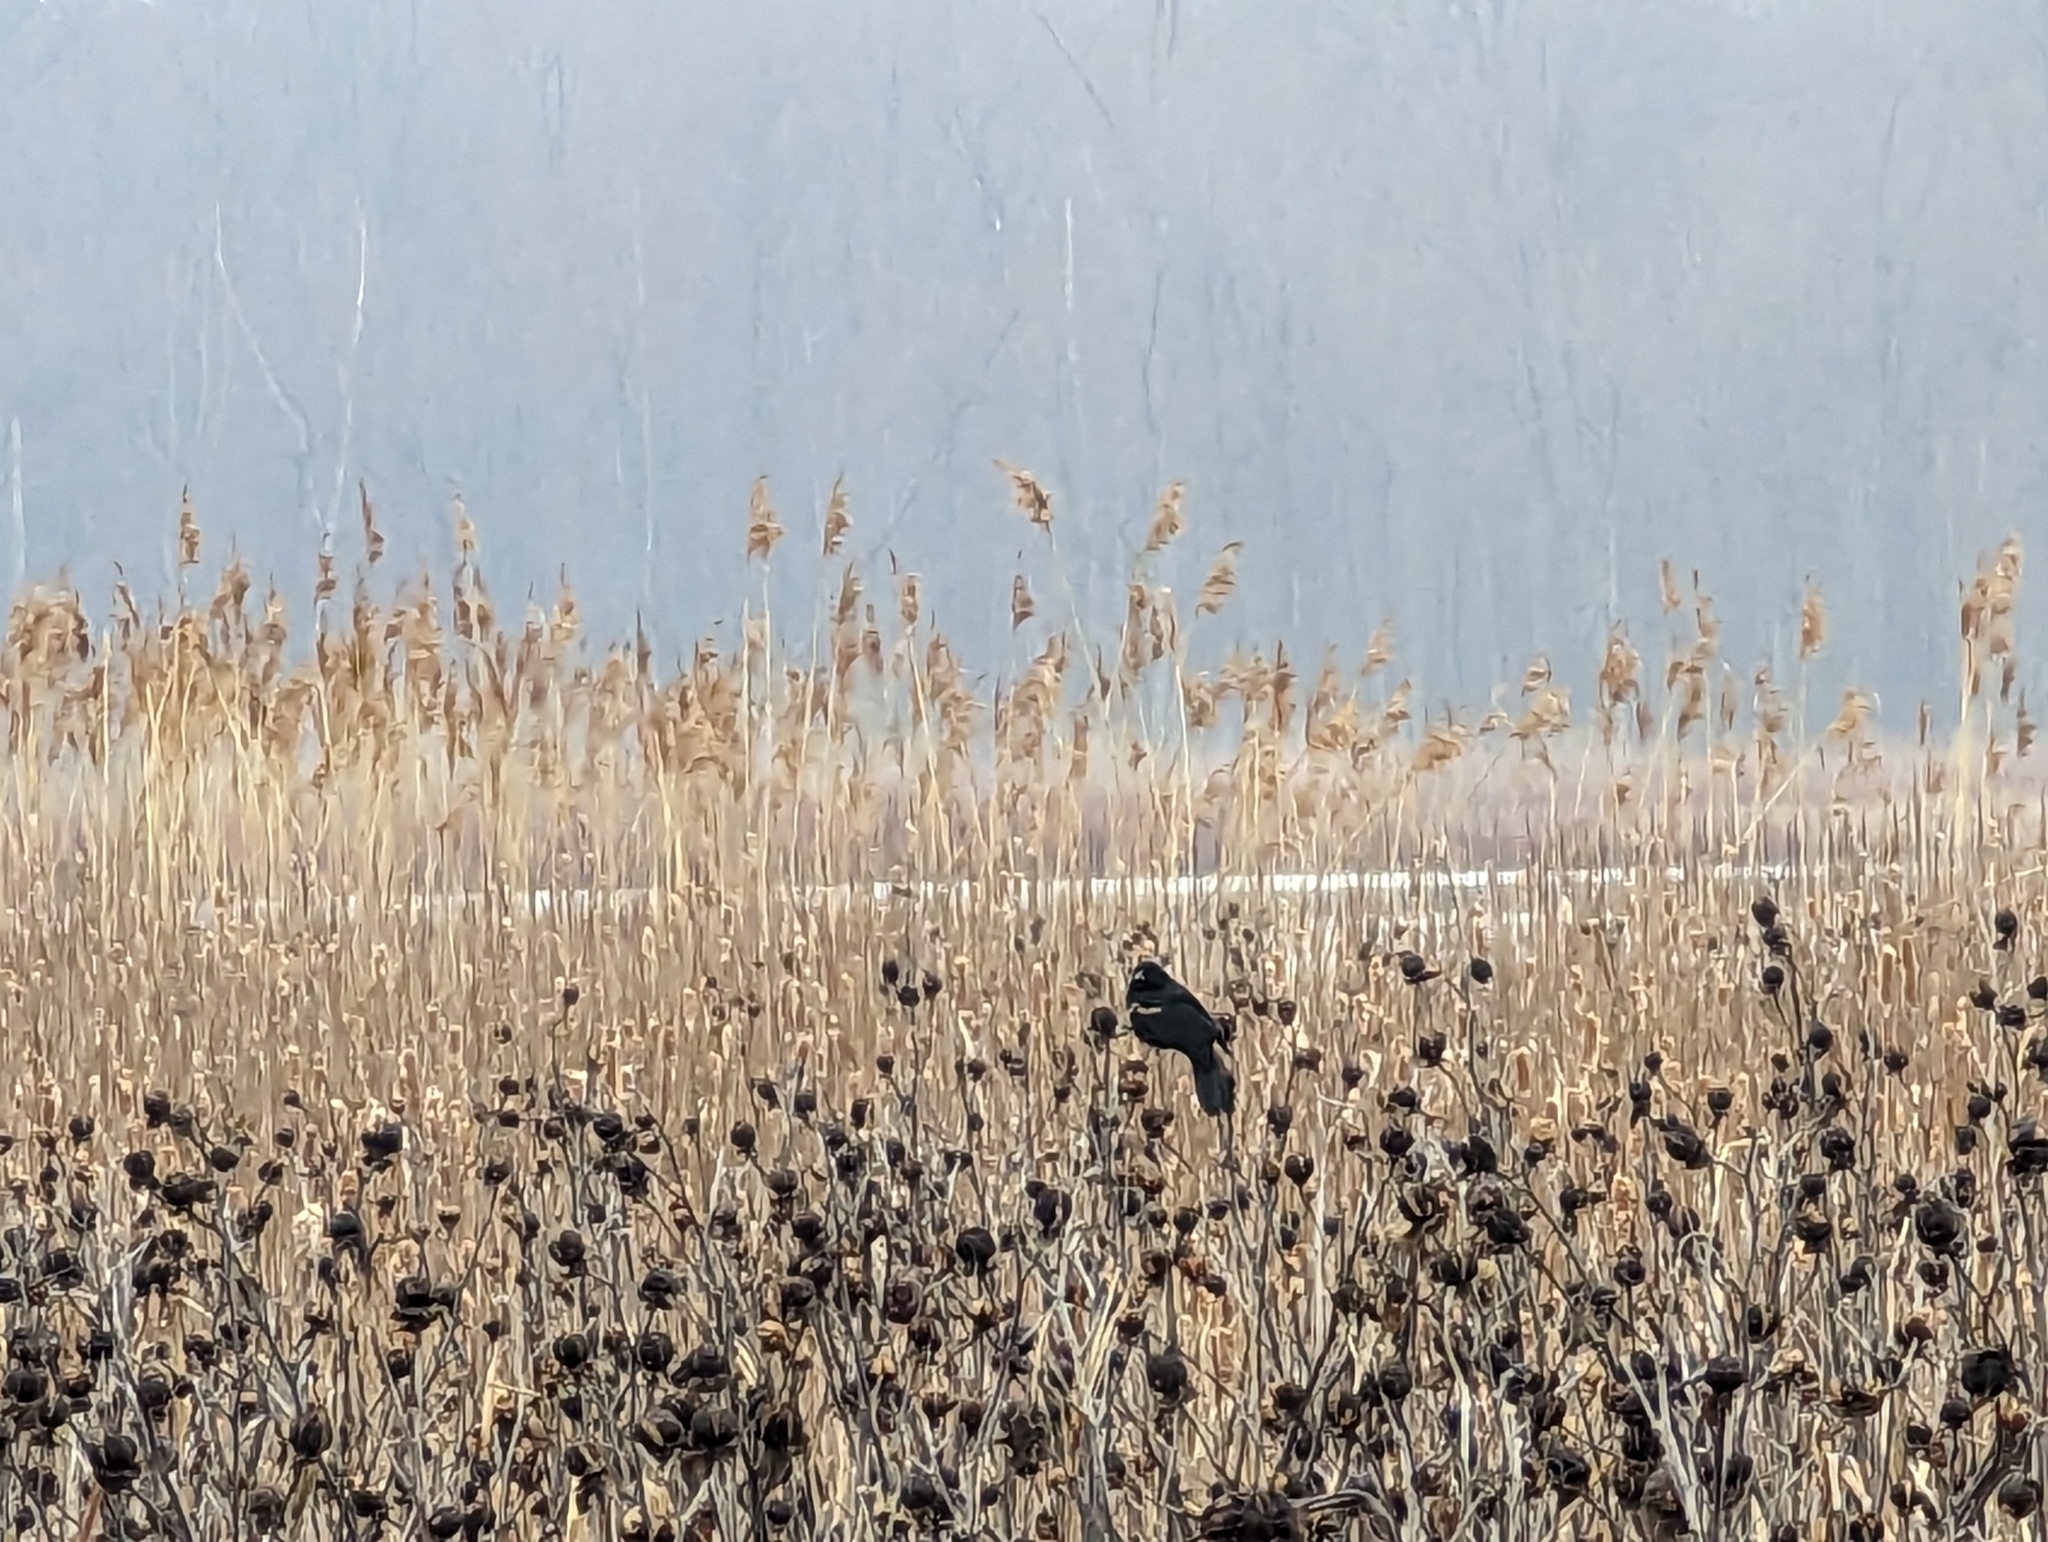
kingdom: Animalia
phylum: Chordata
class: Aves
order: Passeriformes
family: Icteridae
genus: Agelaius
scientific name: Agelaius phoeniceus
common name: Red-winged blackbird
